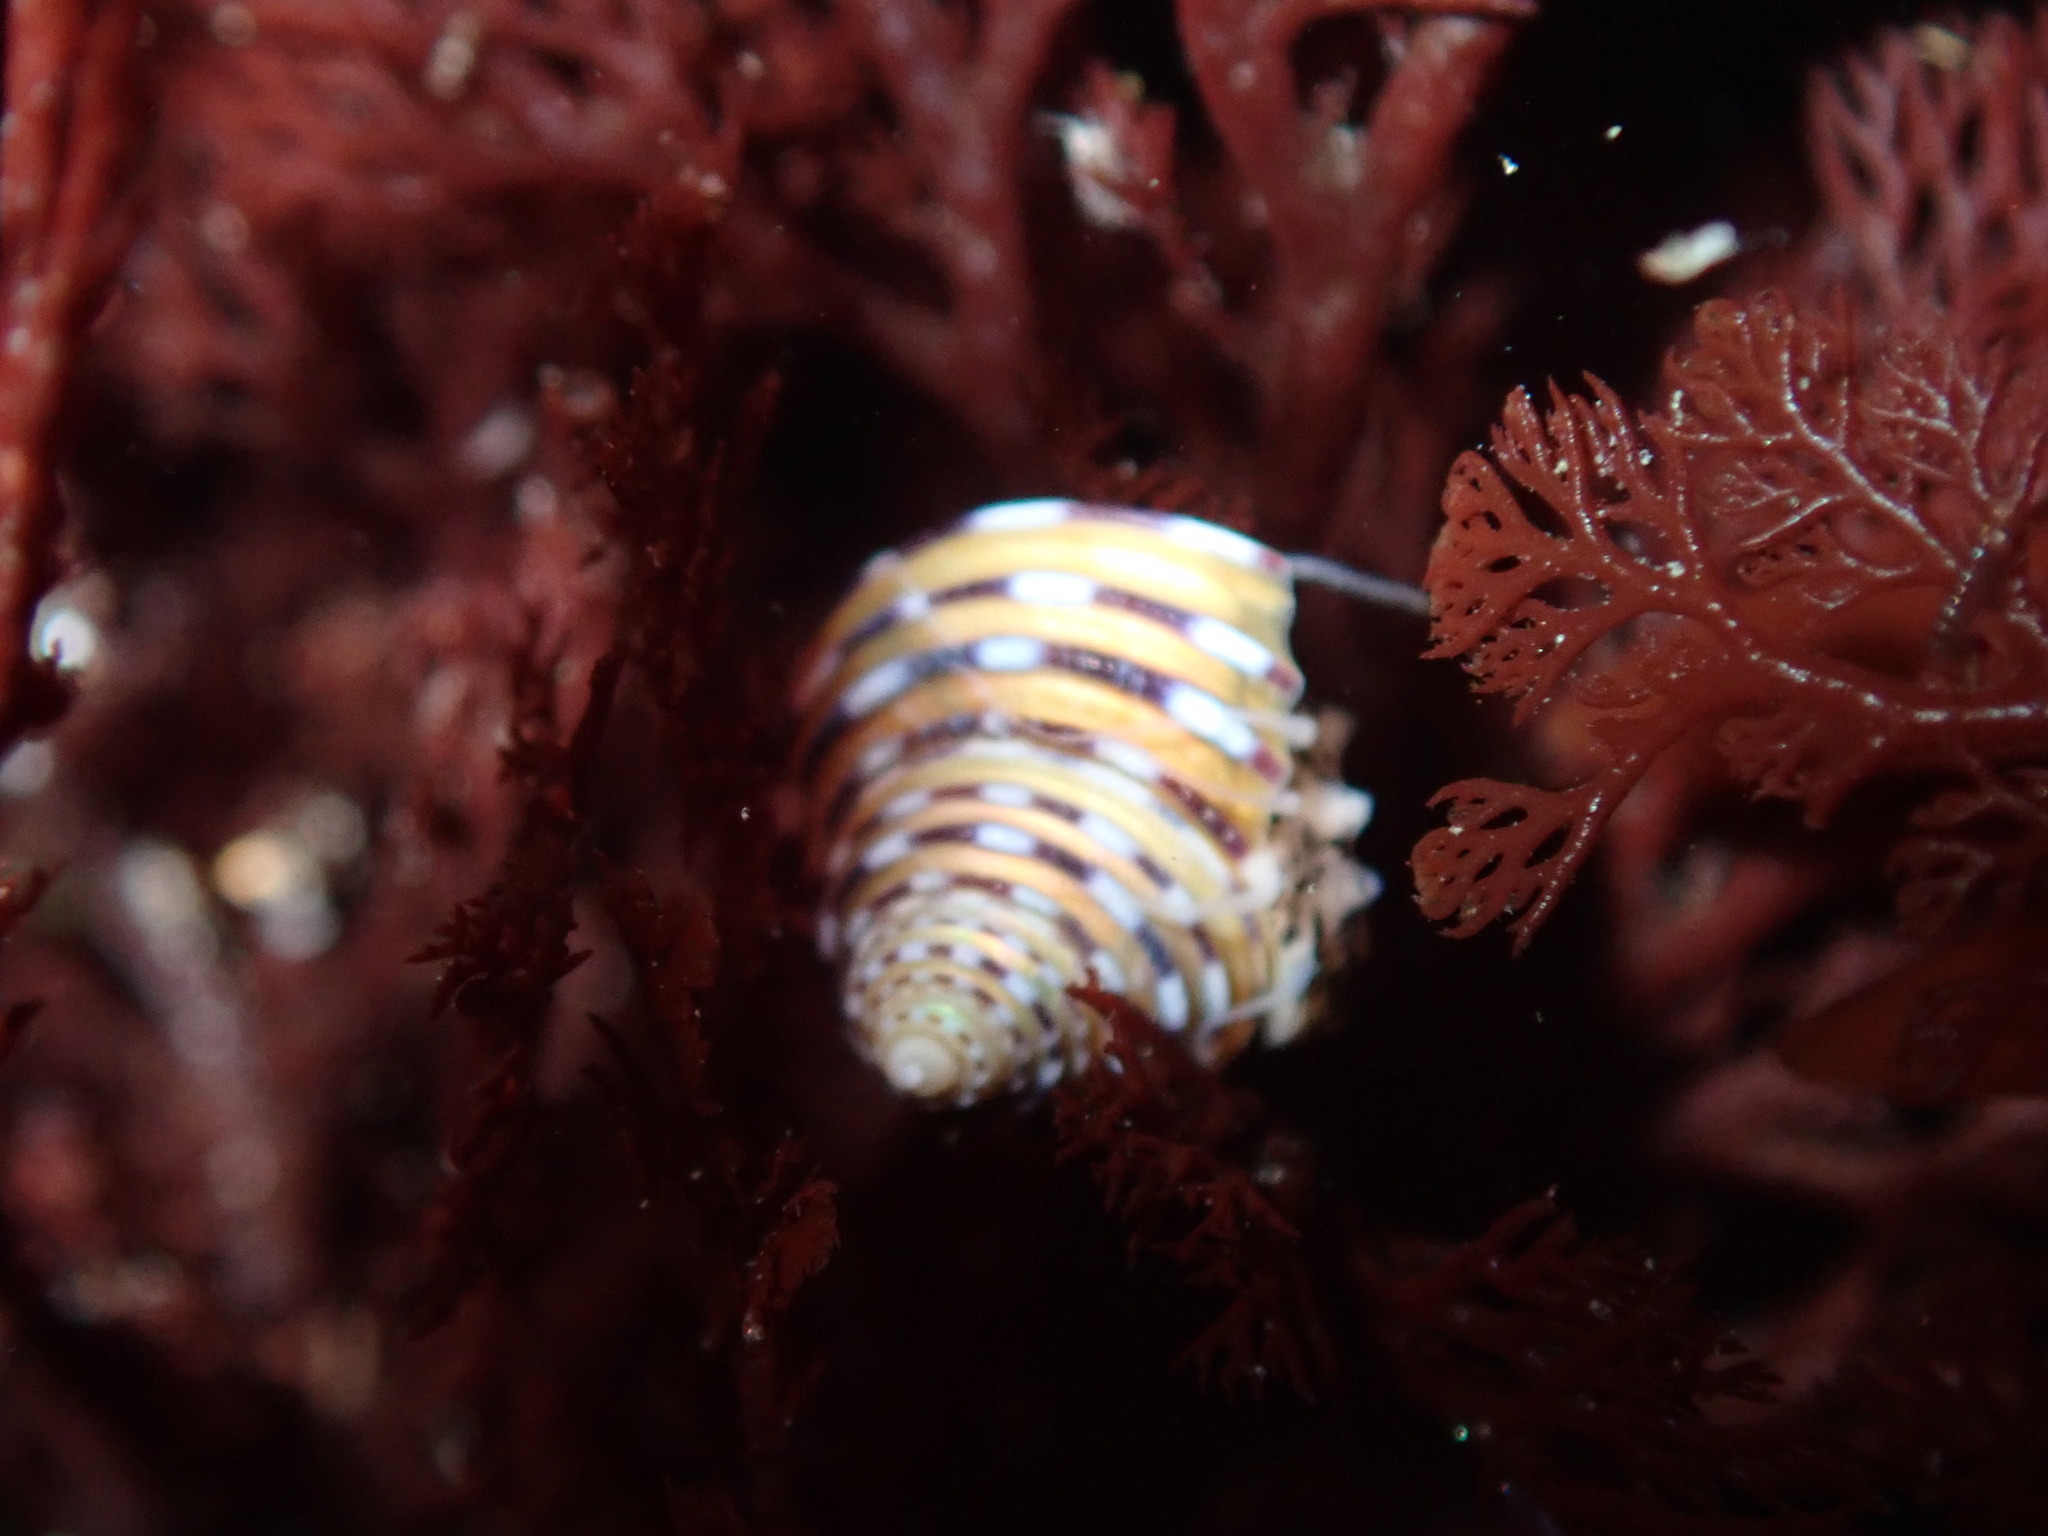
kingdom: Animalia
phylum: Mollusca
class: Gastropoda
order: Trochida
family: Calliostomatidae
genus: Calliostoma
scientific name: Calliostoma tricolor
